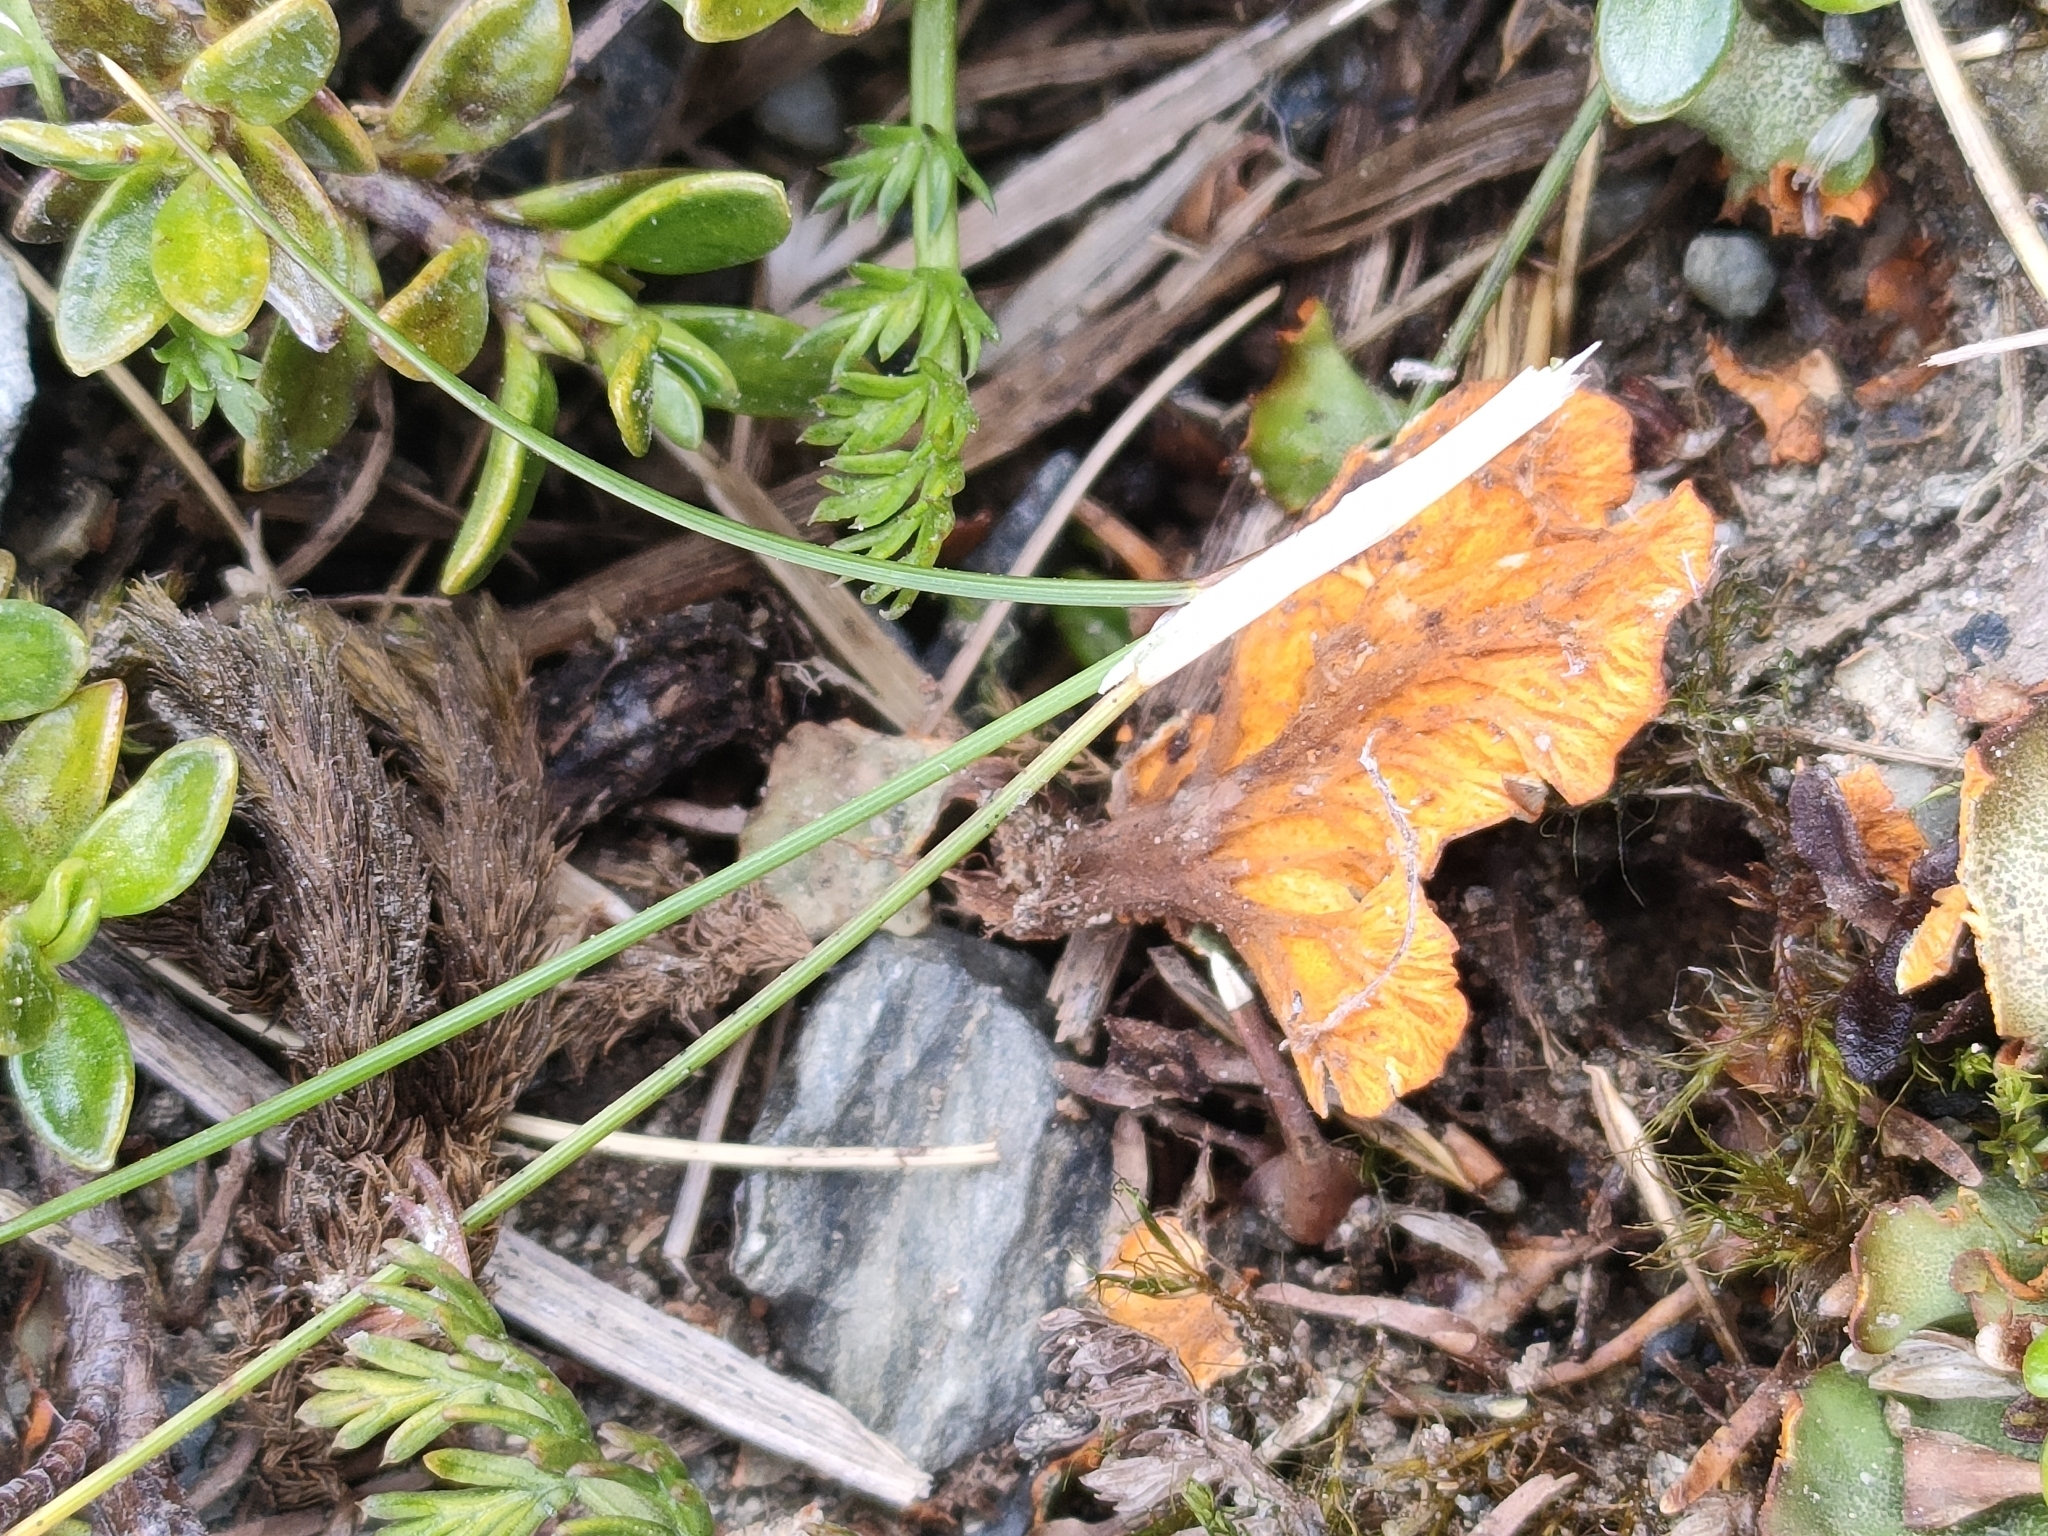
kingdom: Fungi
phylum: Ascomycota
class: Lecanoromycetes
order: Peltigerales
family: Peltigeraceae
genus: Solorina
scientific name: Solorina crocea
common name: Mountain saffron
